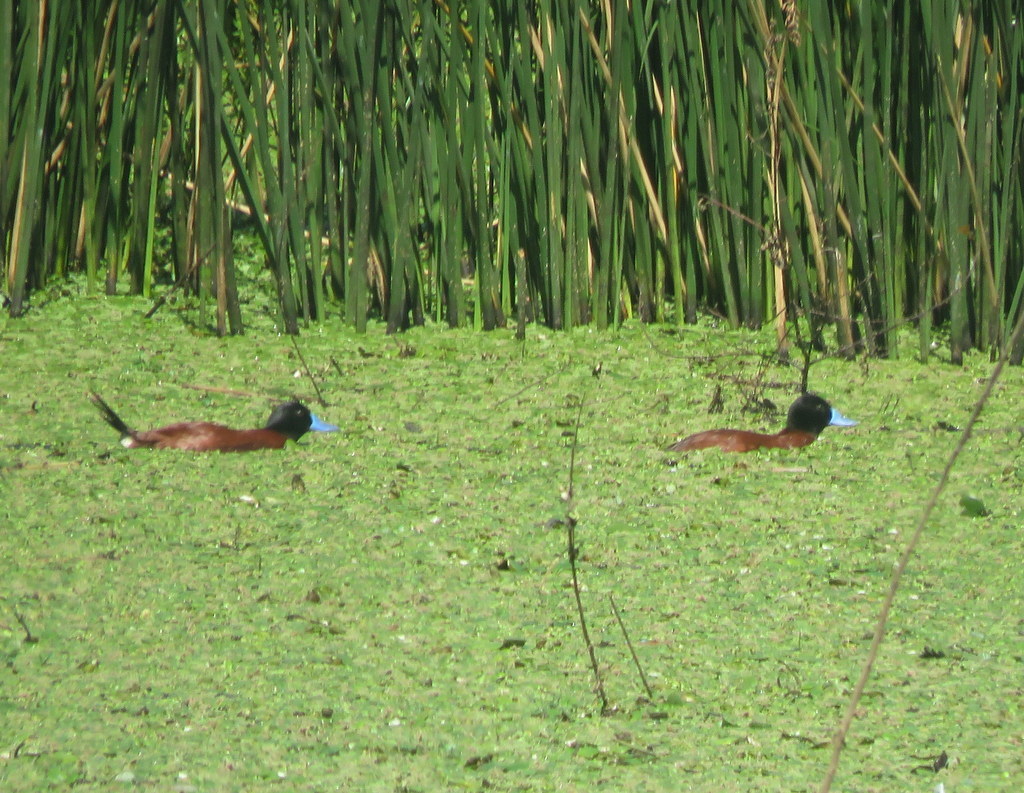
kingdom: Animalia
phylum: Chordata
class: Aves
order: Anseriformes
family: Anatidae
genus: Oxyura
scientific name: Oxyura vittata
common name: Lake duck
